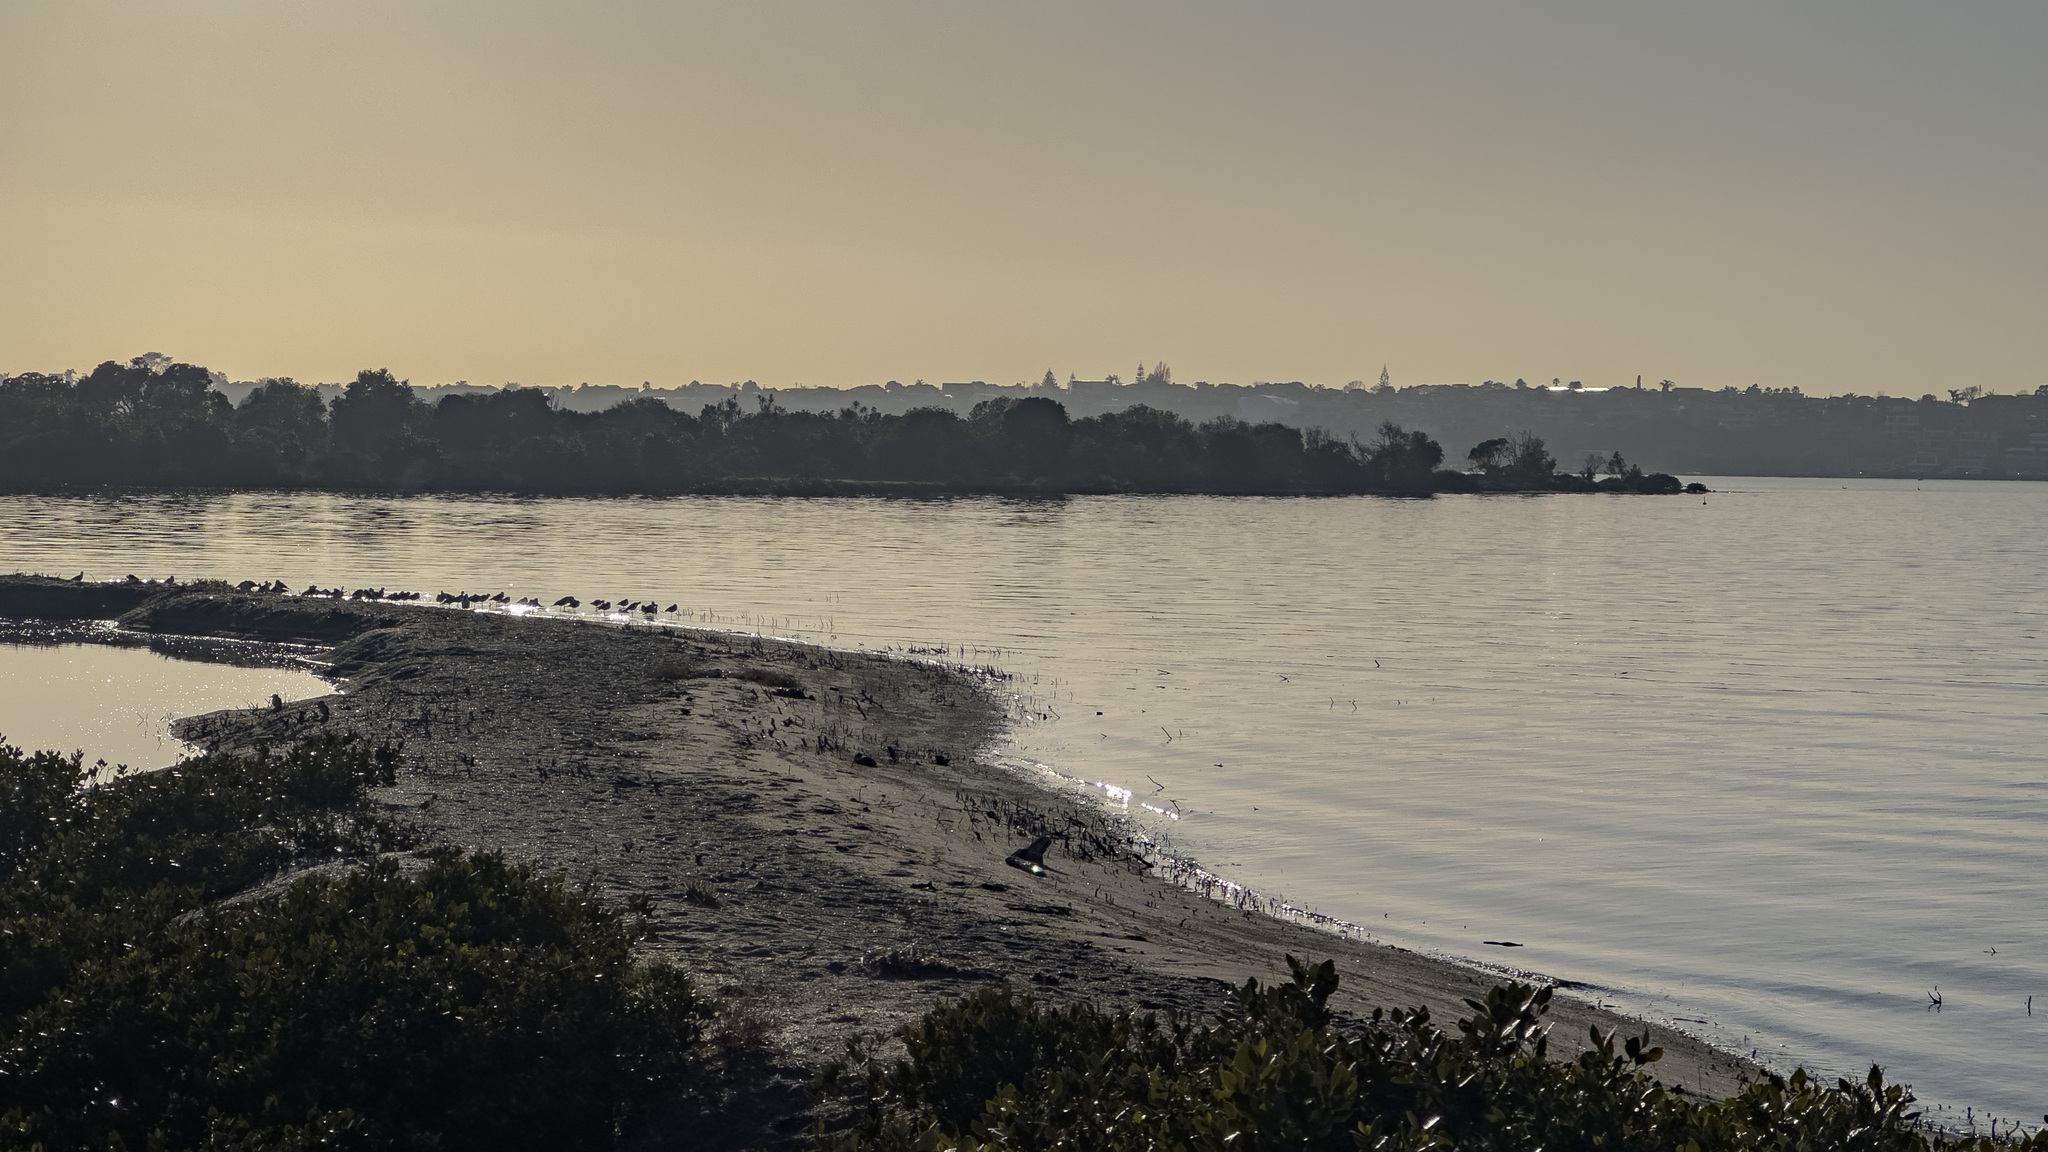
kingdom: Animalia
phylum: Chordata
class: Aves
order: Charadriiformes
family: Recurvirostridae
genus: Himantopus
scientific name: Himantopus leucocephalus
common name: White-headed stilt
